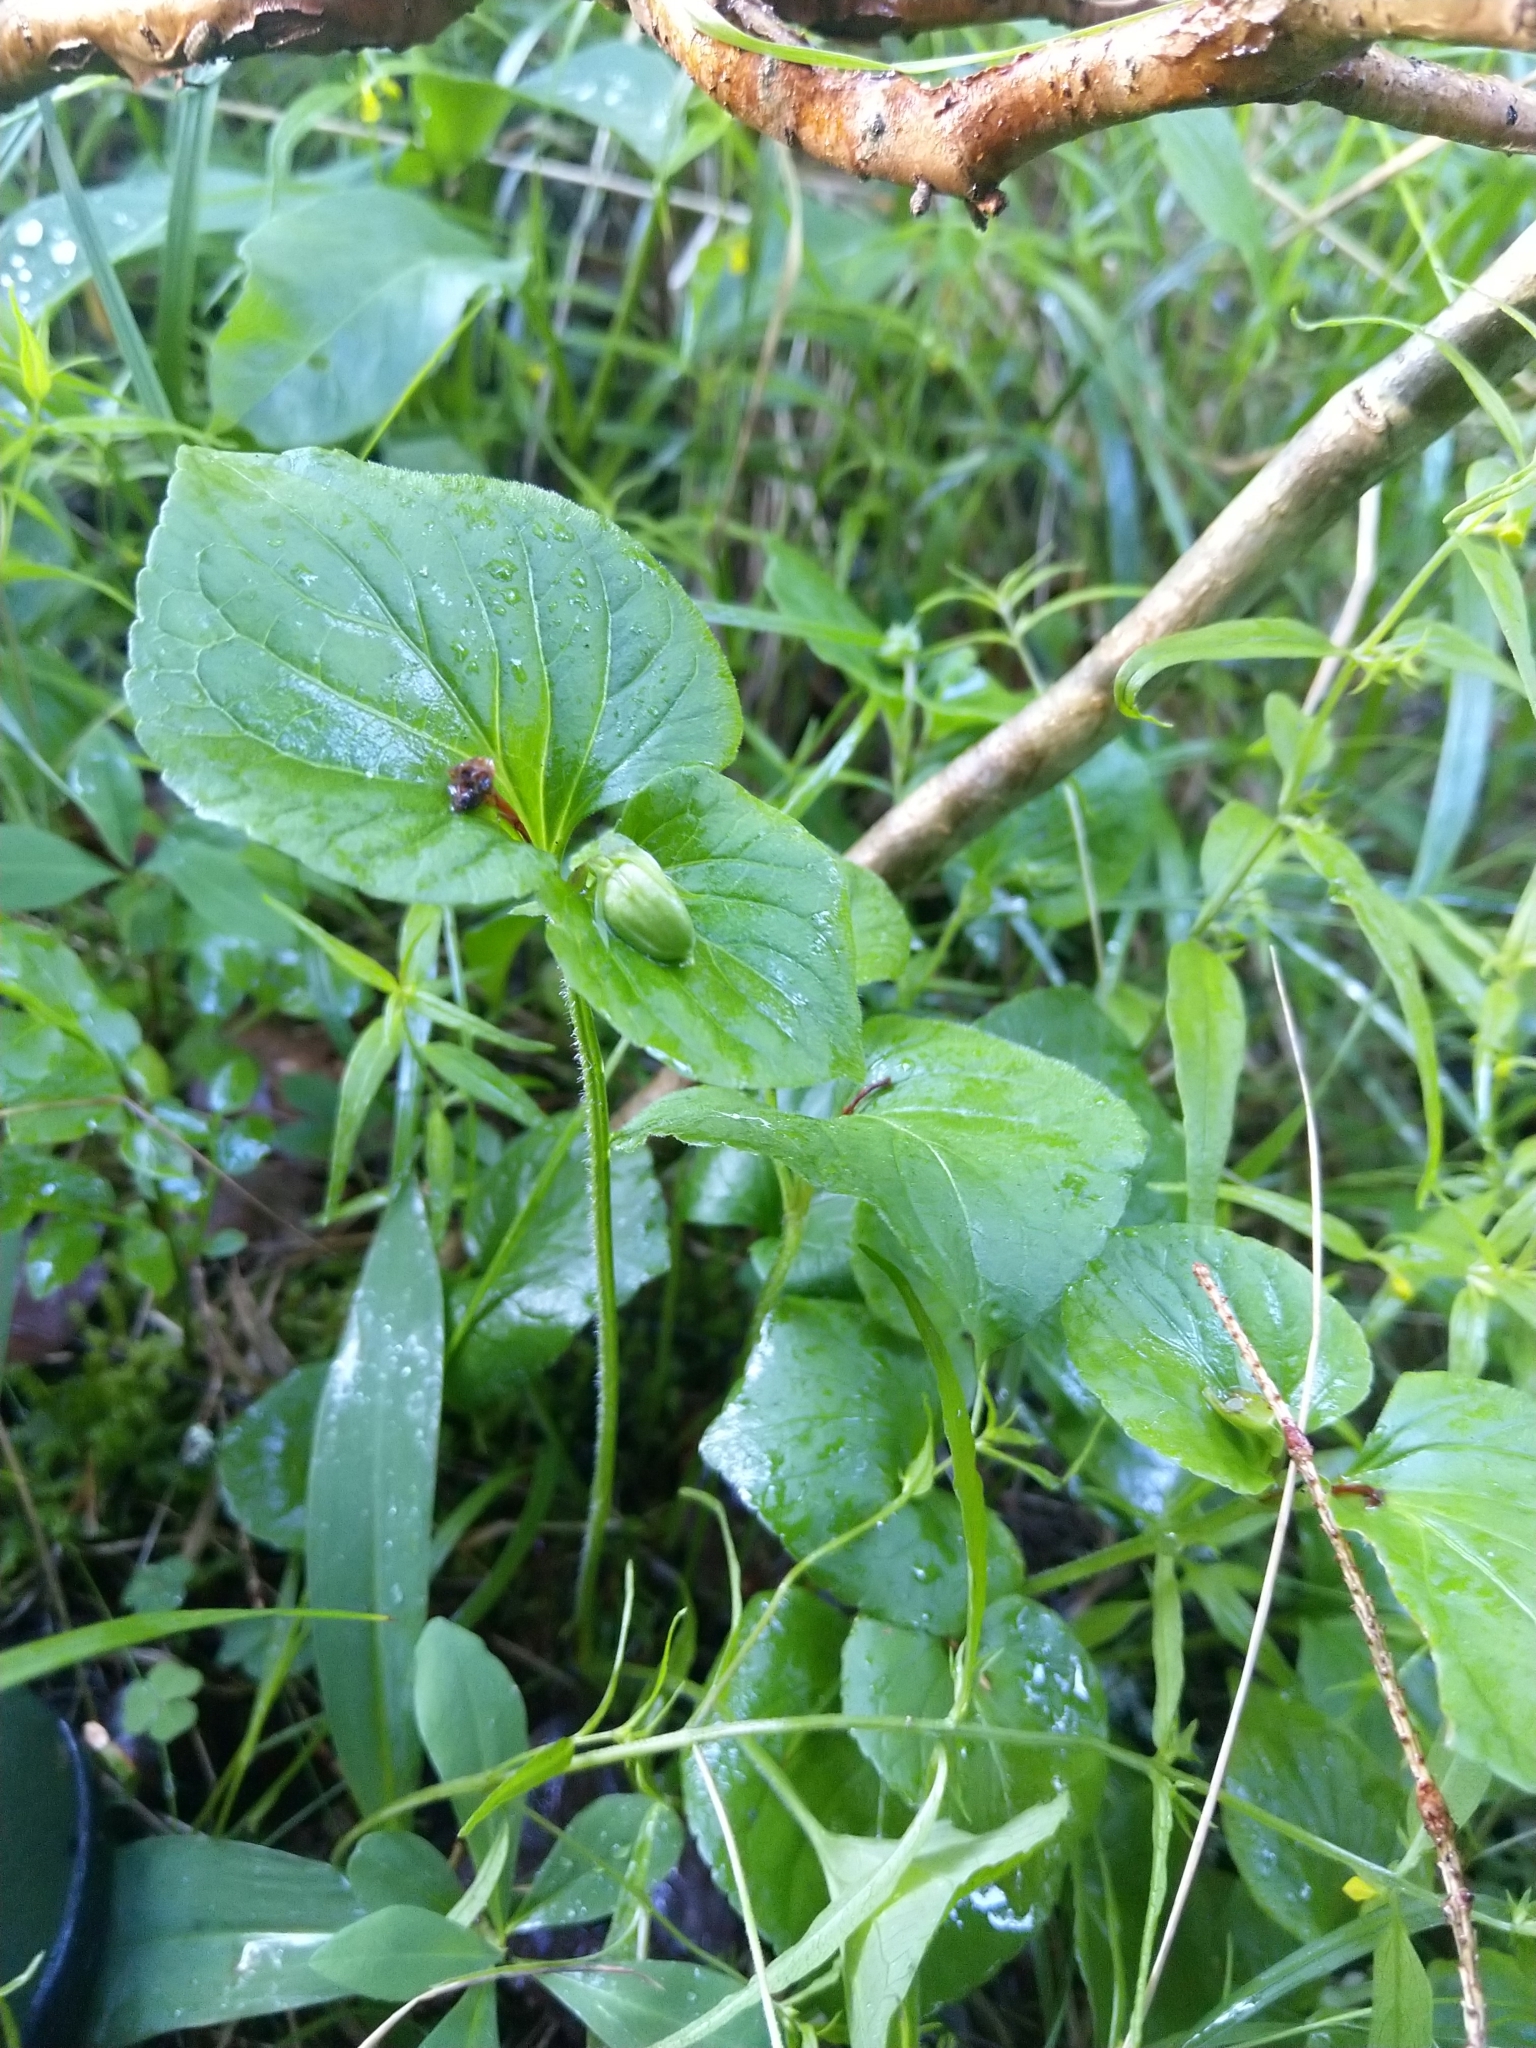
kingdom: Plantae
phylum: Tracheophyta
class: Magnoliopsida
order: Malpighiales
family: Violaceae
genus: Viola
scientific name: Viola mirabilis
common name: Wonder violet
